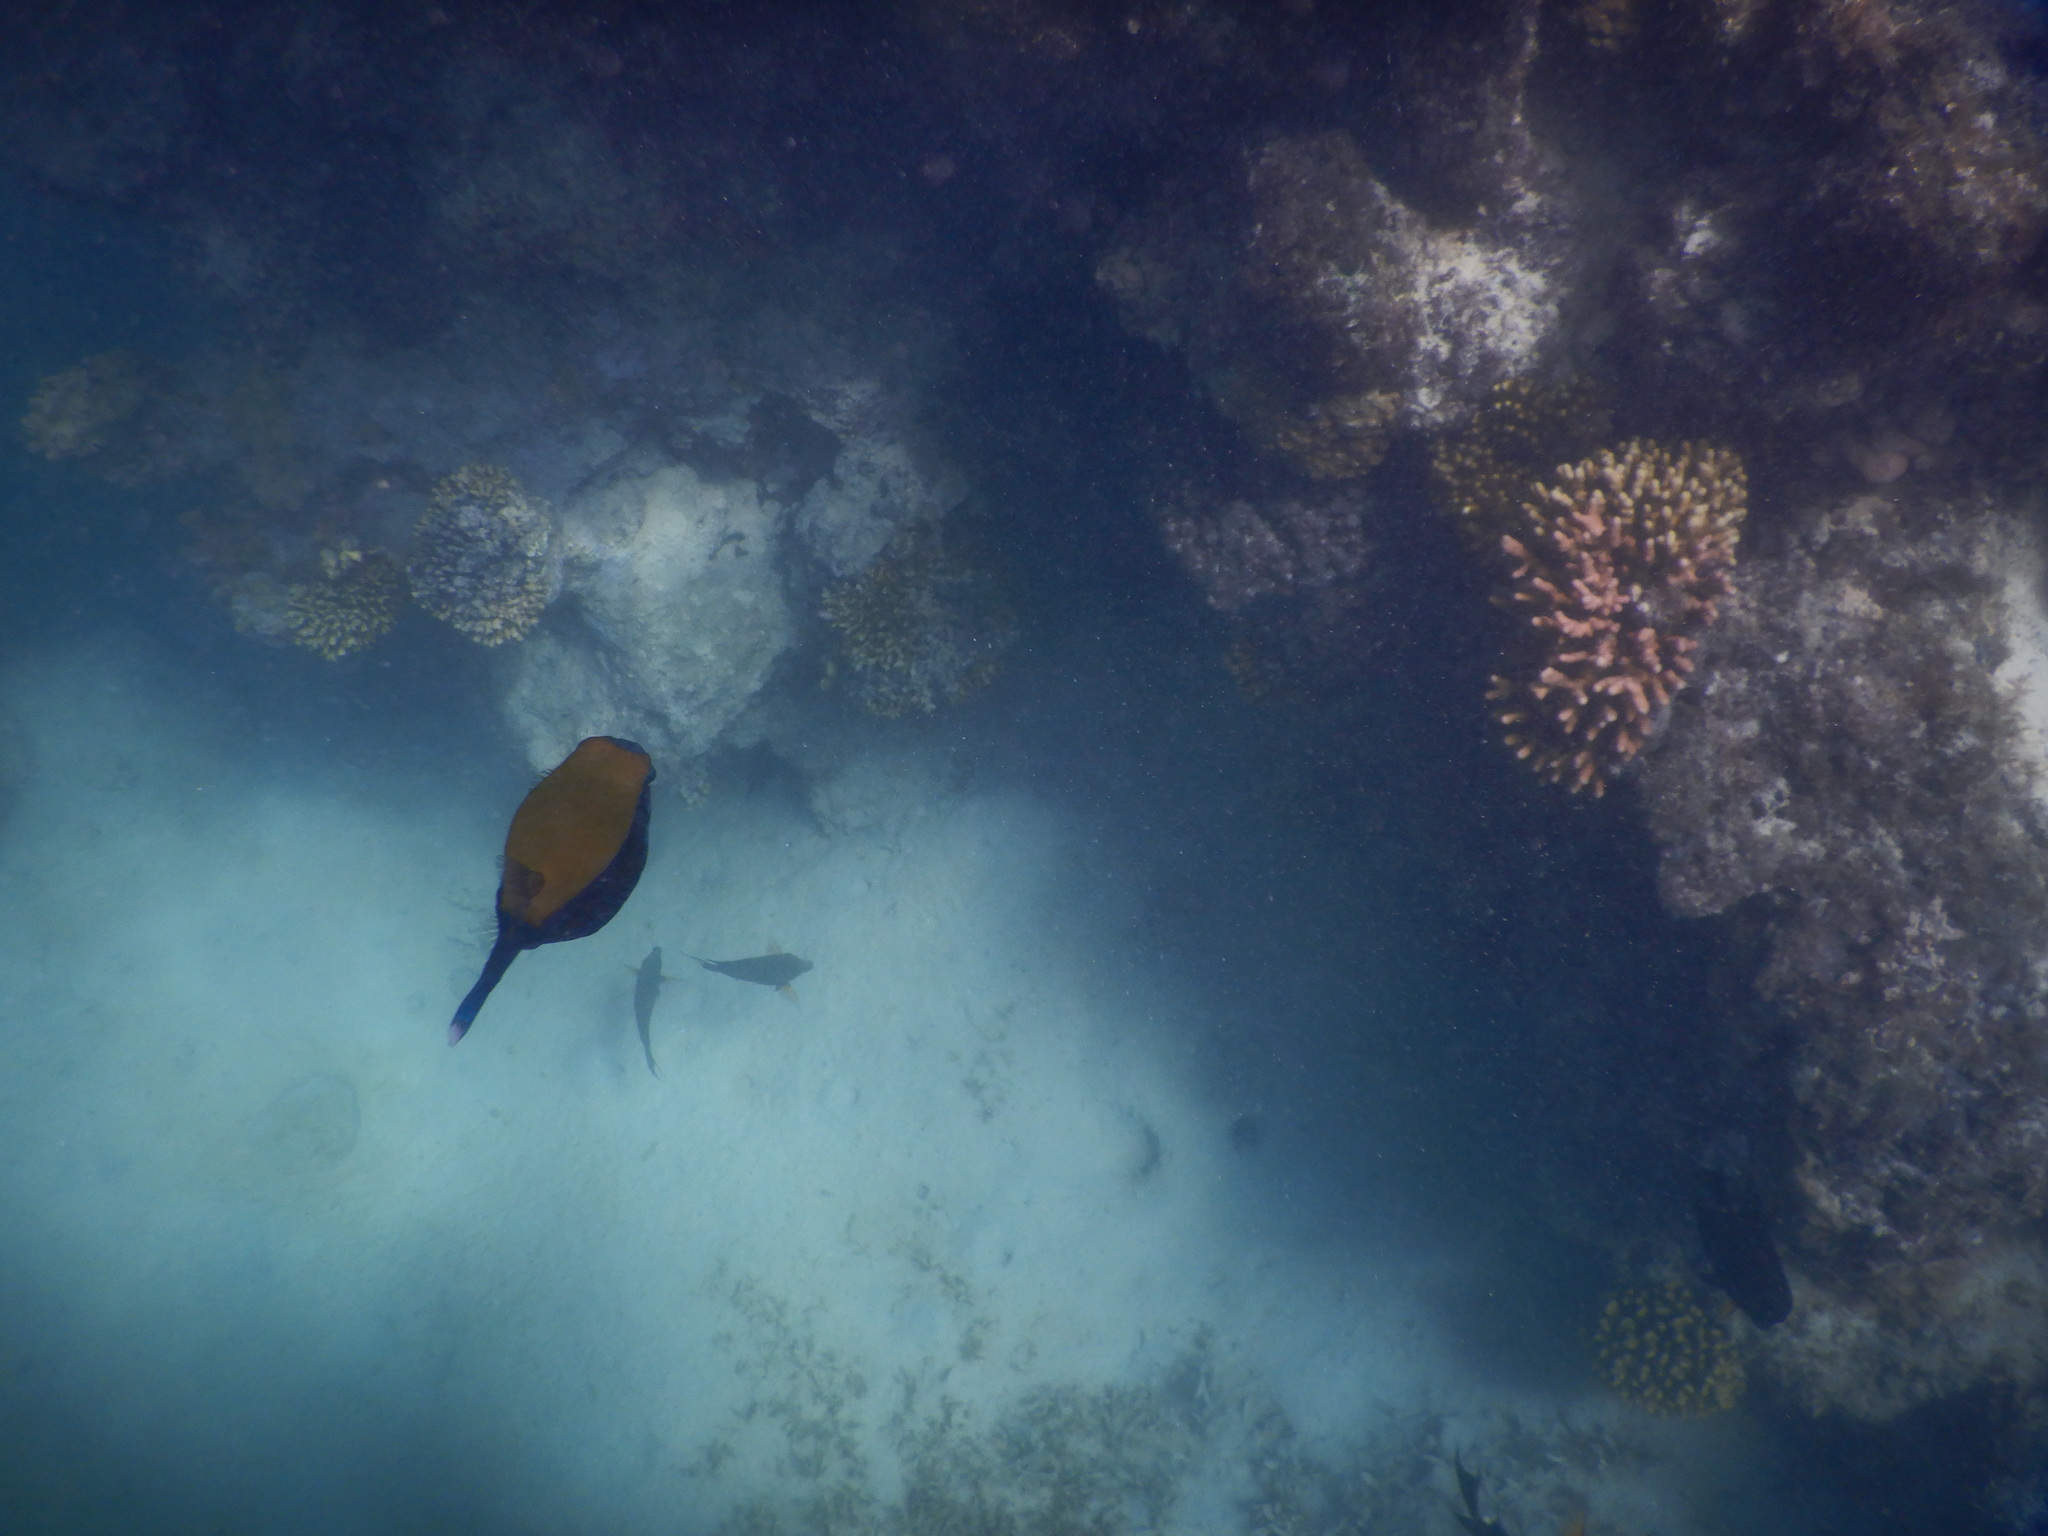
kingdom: Animalia
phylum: Chordata
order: Tetraodontiformes
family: Ostraciidae
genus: Ostracion
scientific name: Ostracion cyanurus
